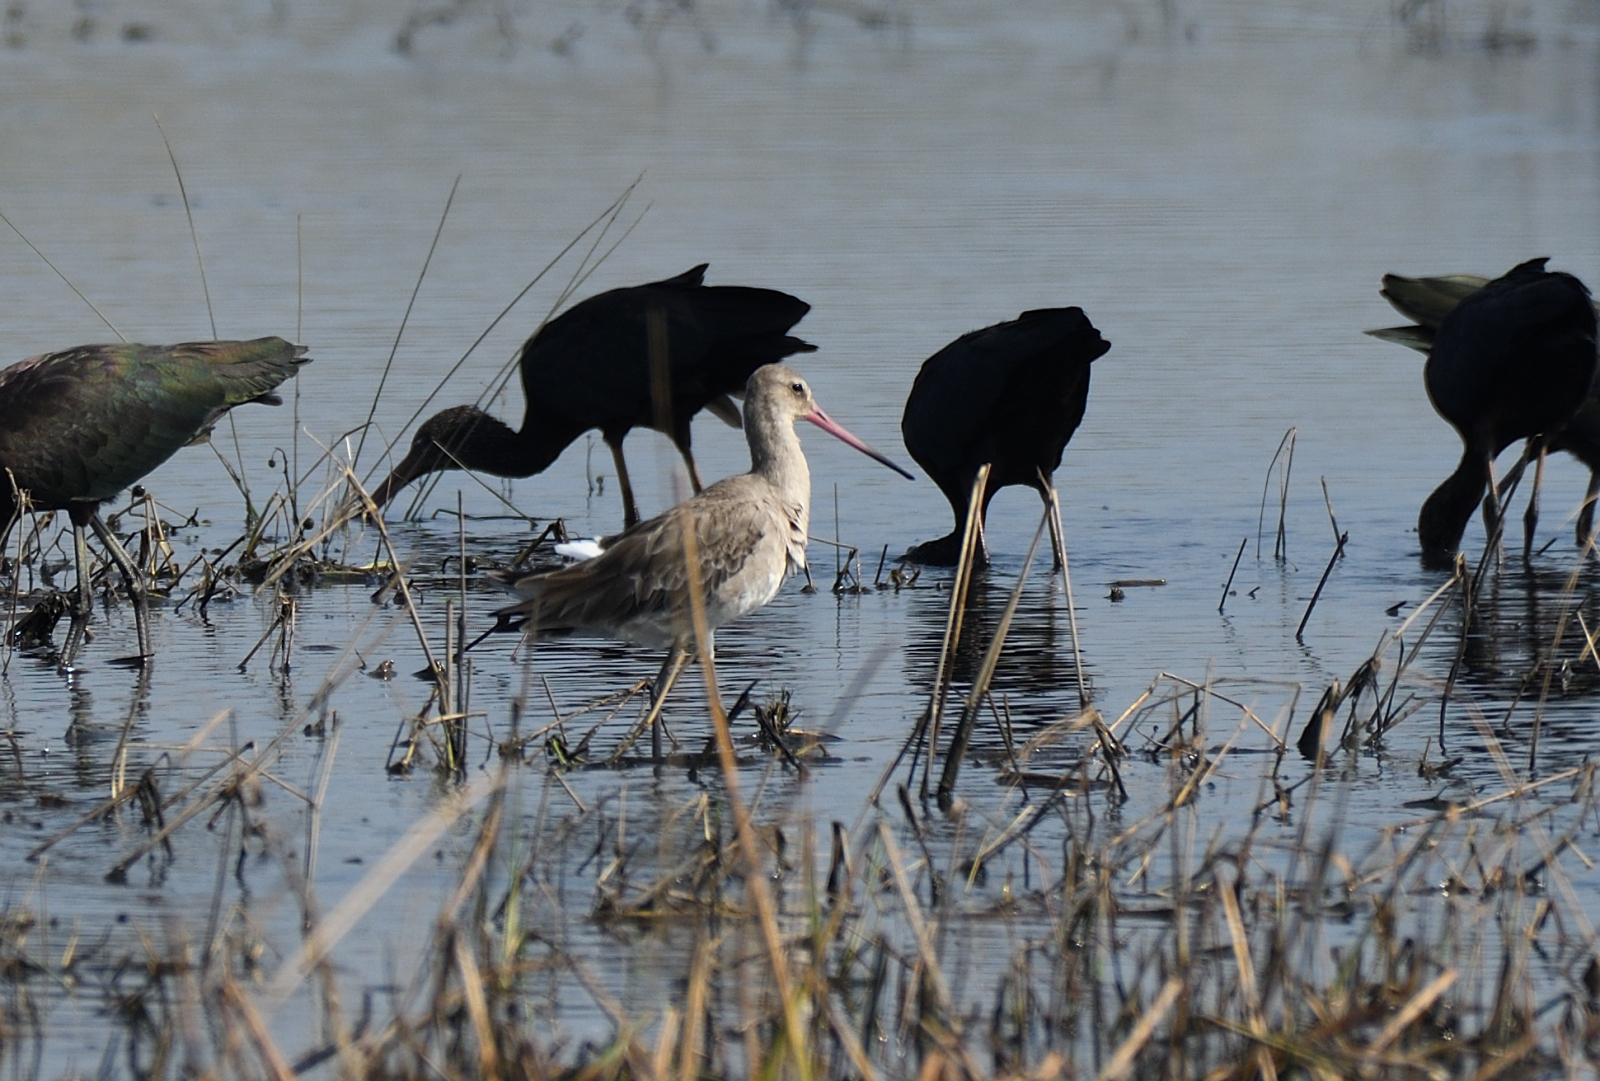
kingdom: Animalia
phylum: Chordata
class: Aves
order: Charadriiformes
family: Scolopacidae
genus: Limosa
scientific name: Limosa limosa
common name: Black-tailed godwit
